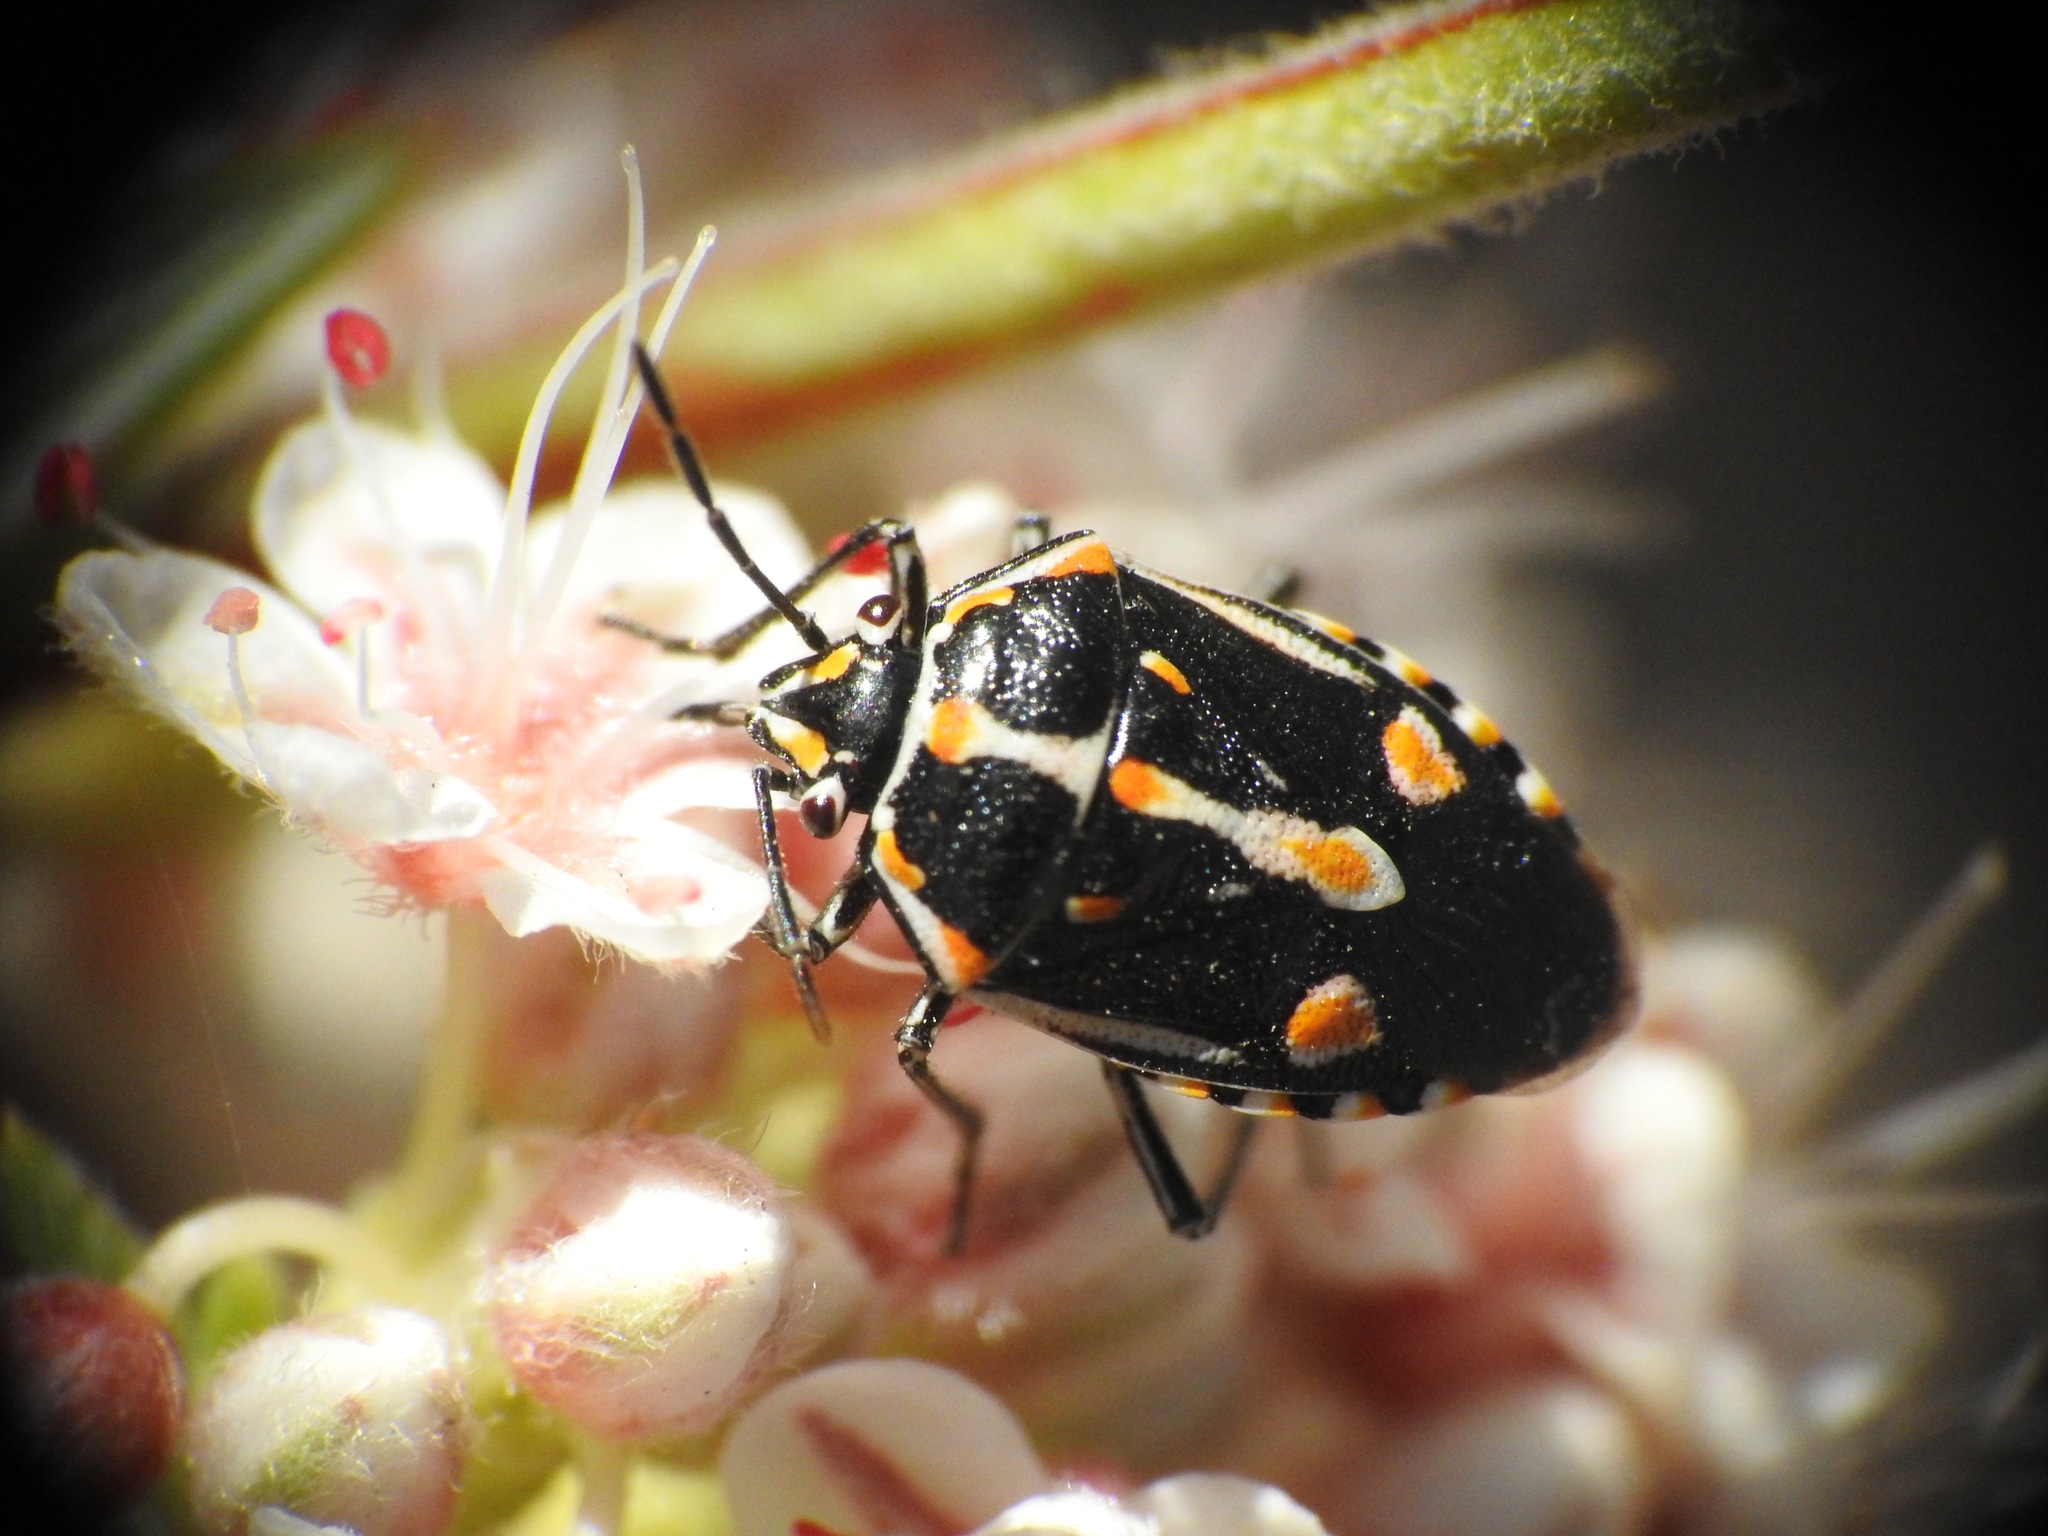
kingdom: Animalia
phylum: Arthropoda
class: Insecta
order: Hemiptera
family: Pentatomidae
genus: Bagrada
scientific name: Bagrada hilaris
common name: Bagrada bug
